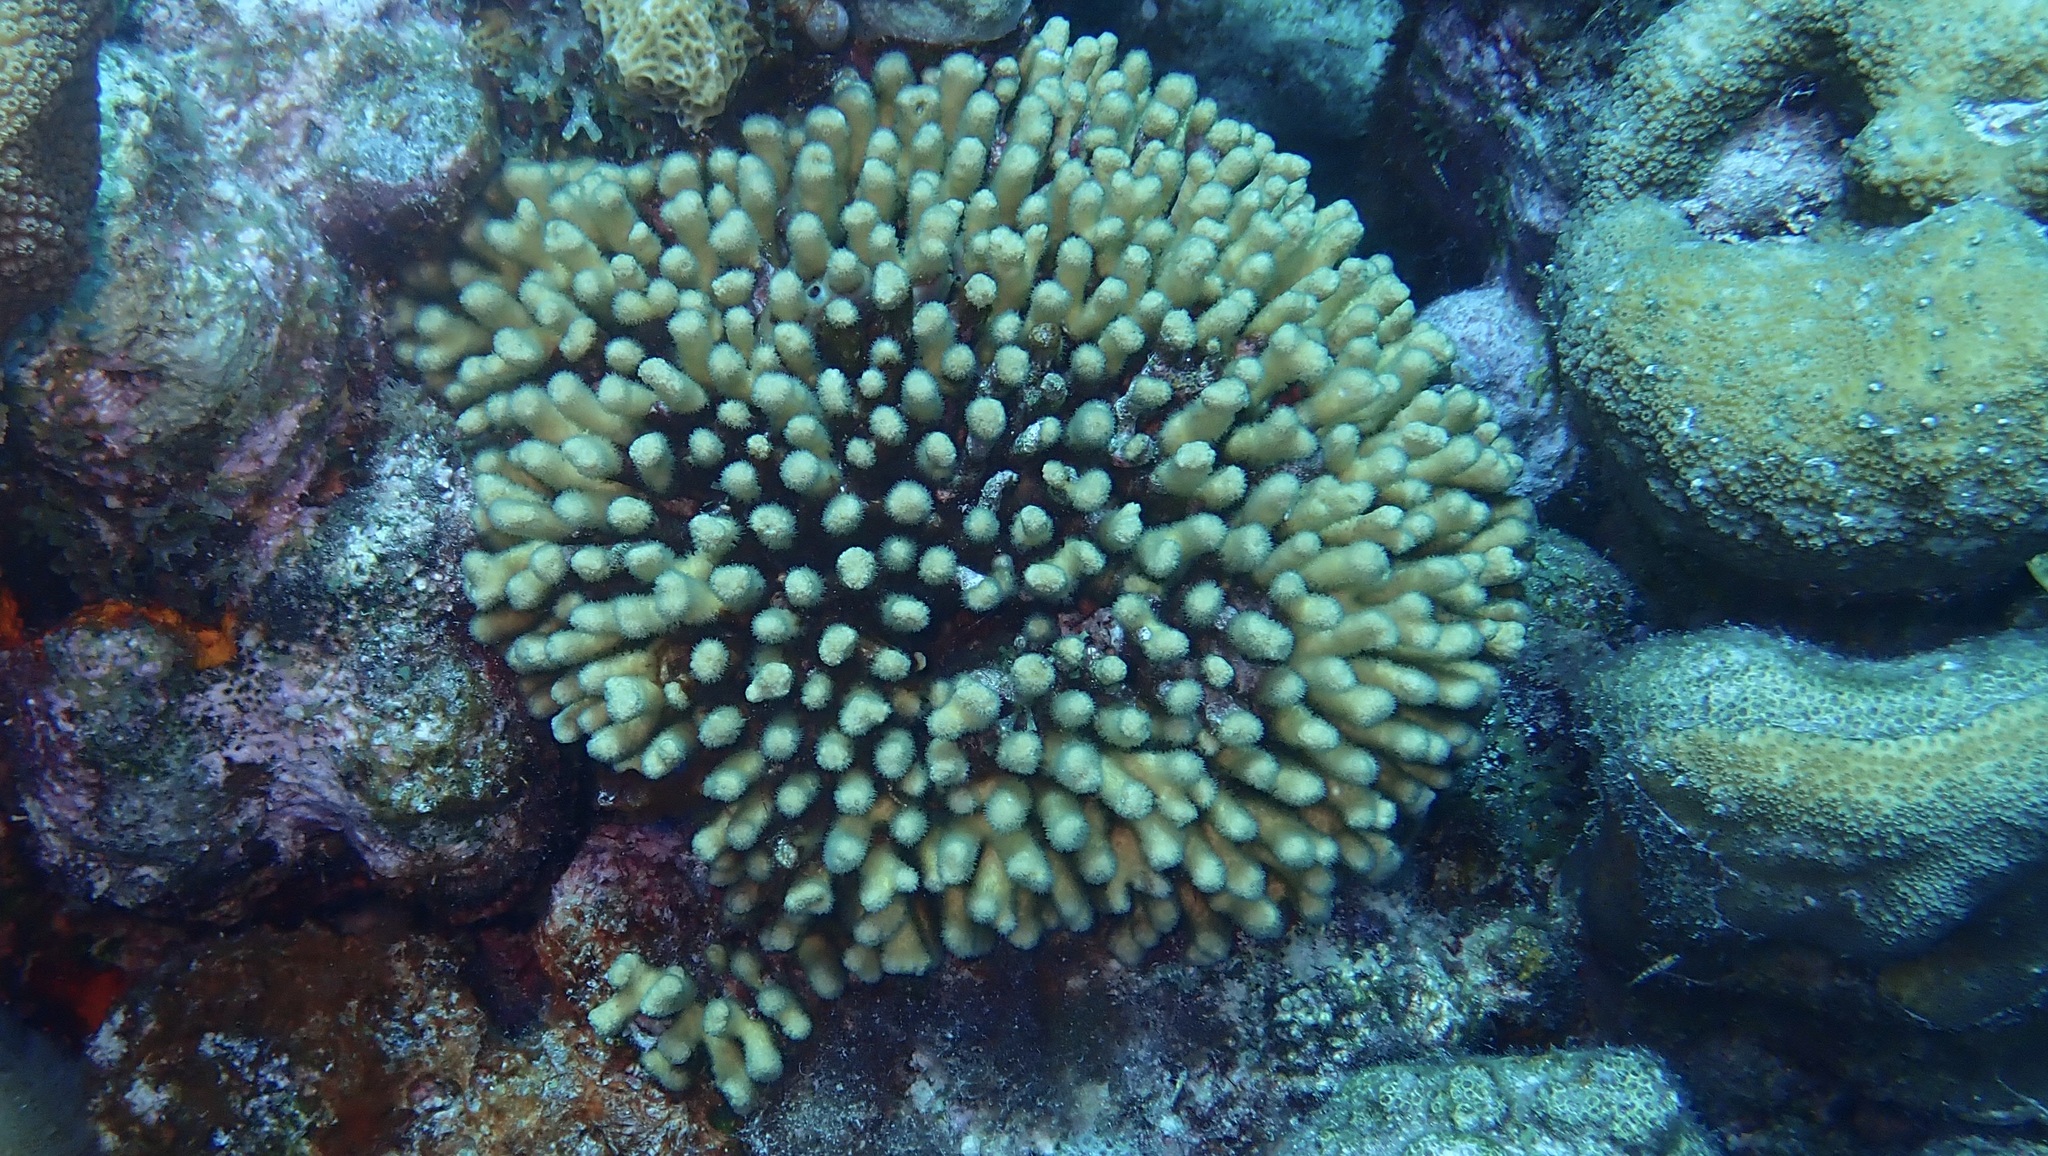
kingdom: Animalia
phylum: Cnidaria
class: Anthozoa
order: Scleractinia
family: Pocilloporidae
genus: Madracis
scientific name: Madracis auretenra
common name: Yellow pencil coral
